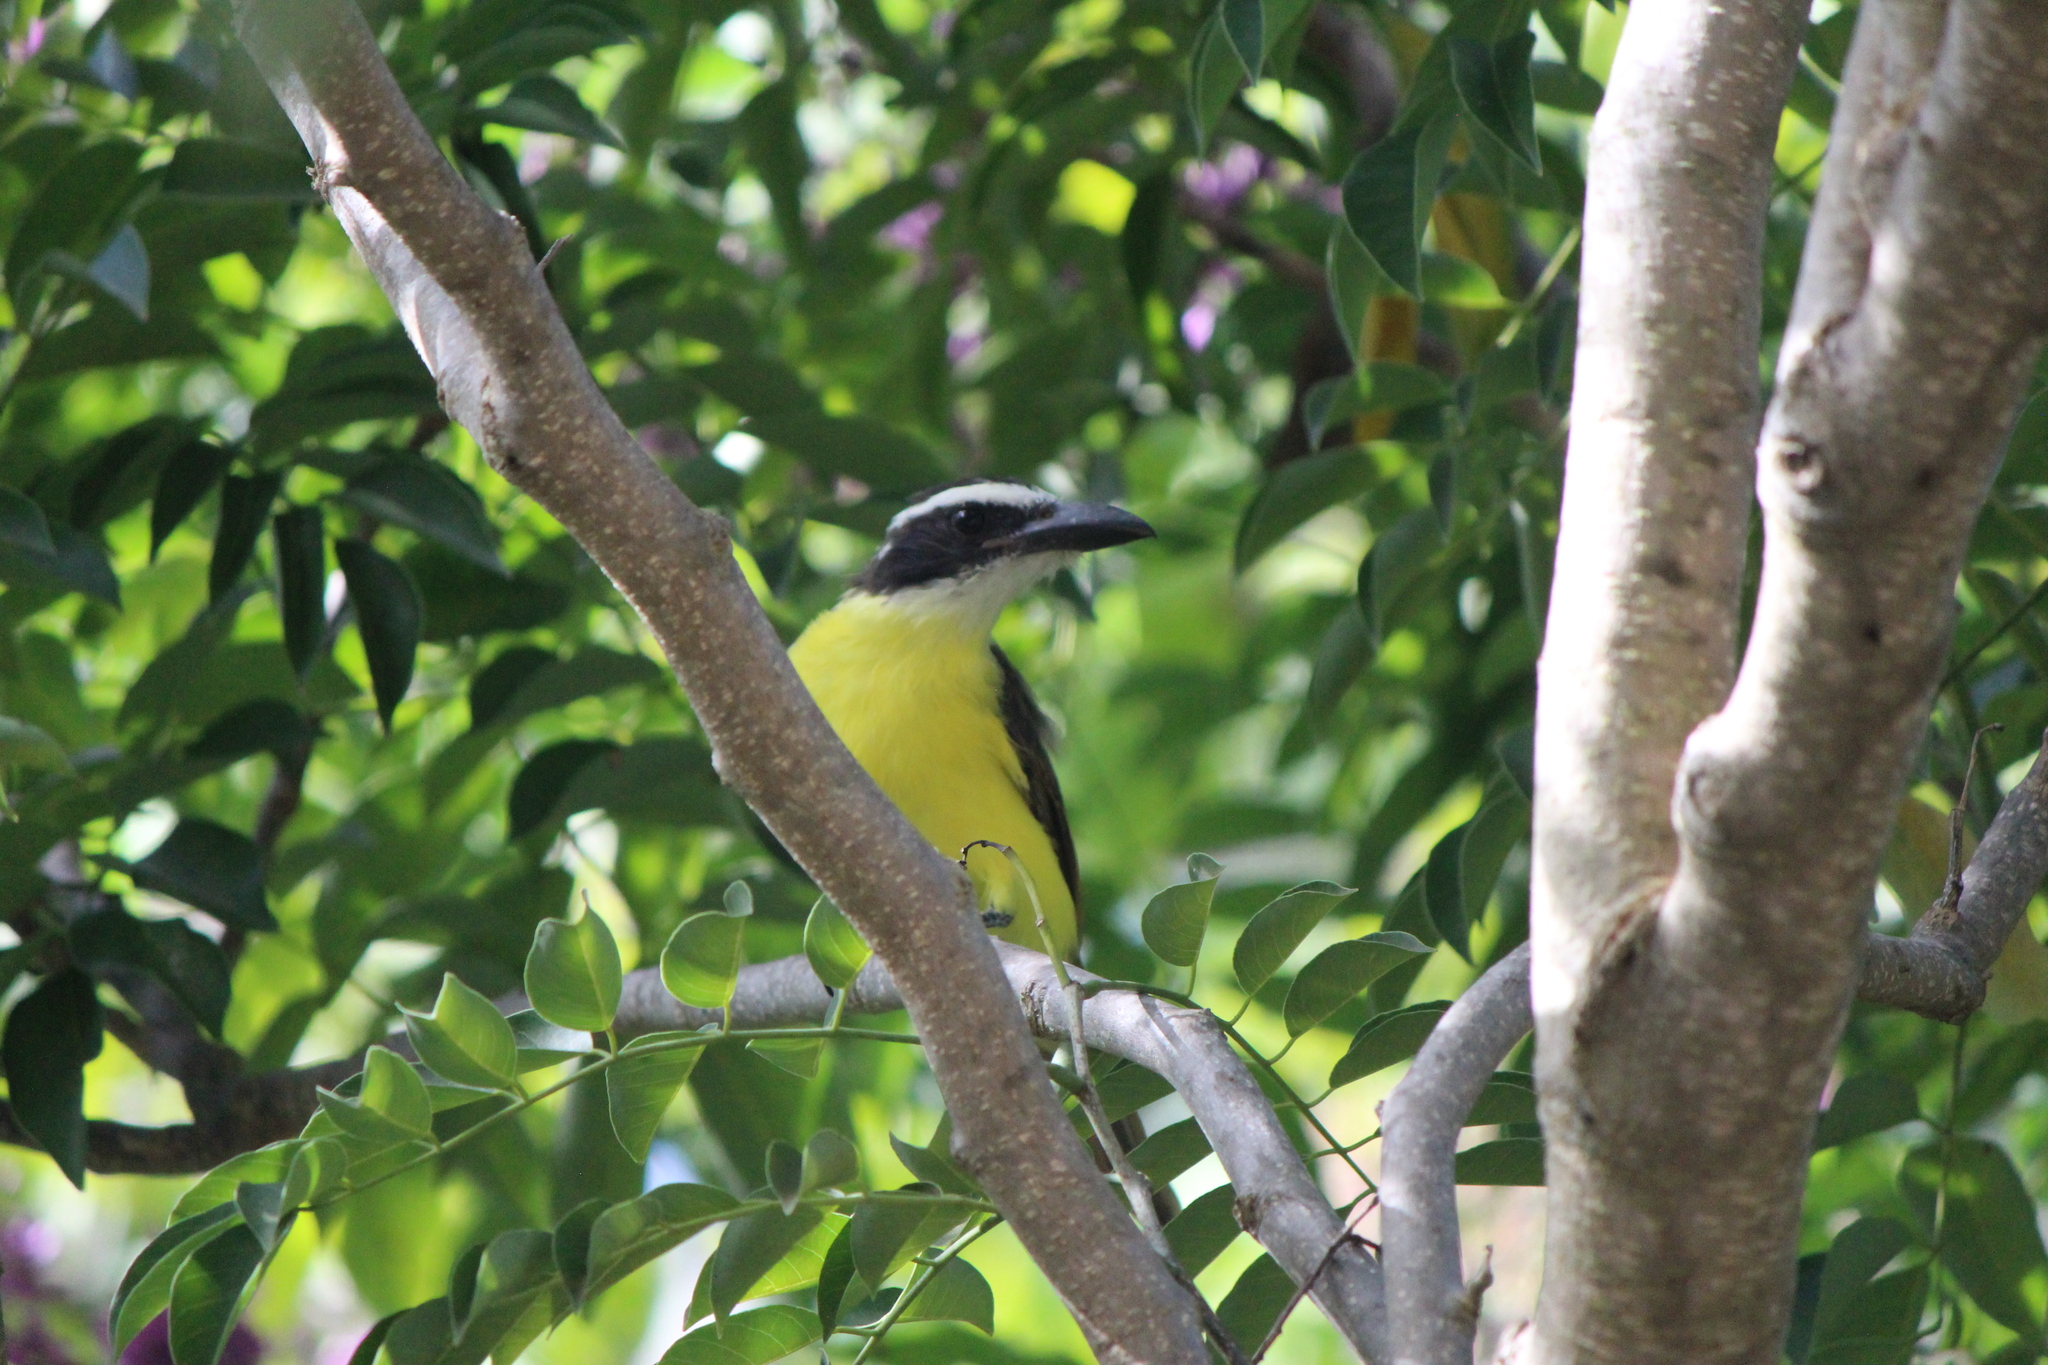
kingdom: Animalia
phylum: Chordata
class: Aves
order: Passeriformes
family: Tyrannidae
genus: Megarynchus
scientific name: Megarynchus pitangua
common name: Boat-billed flycatcher
